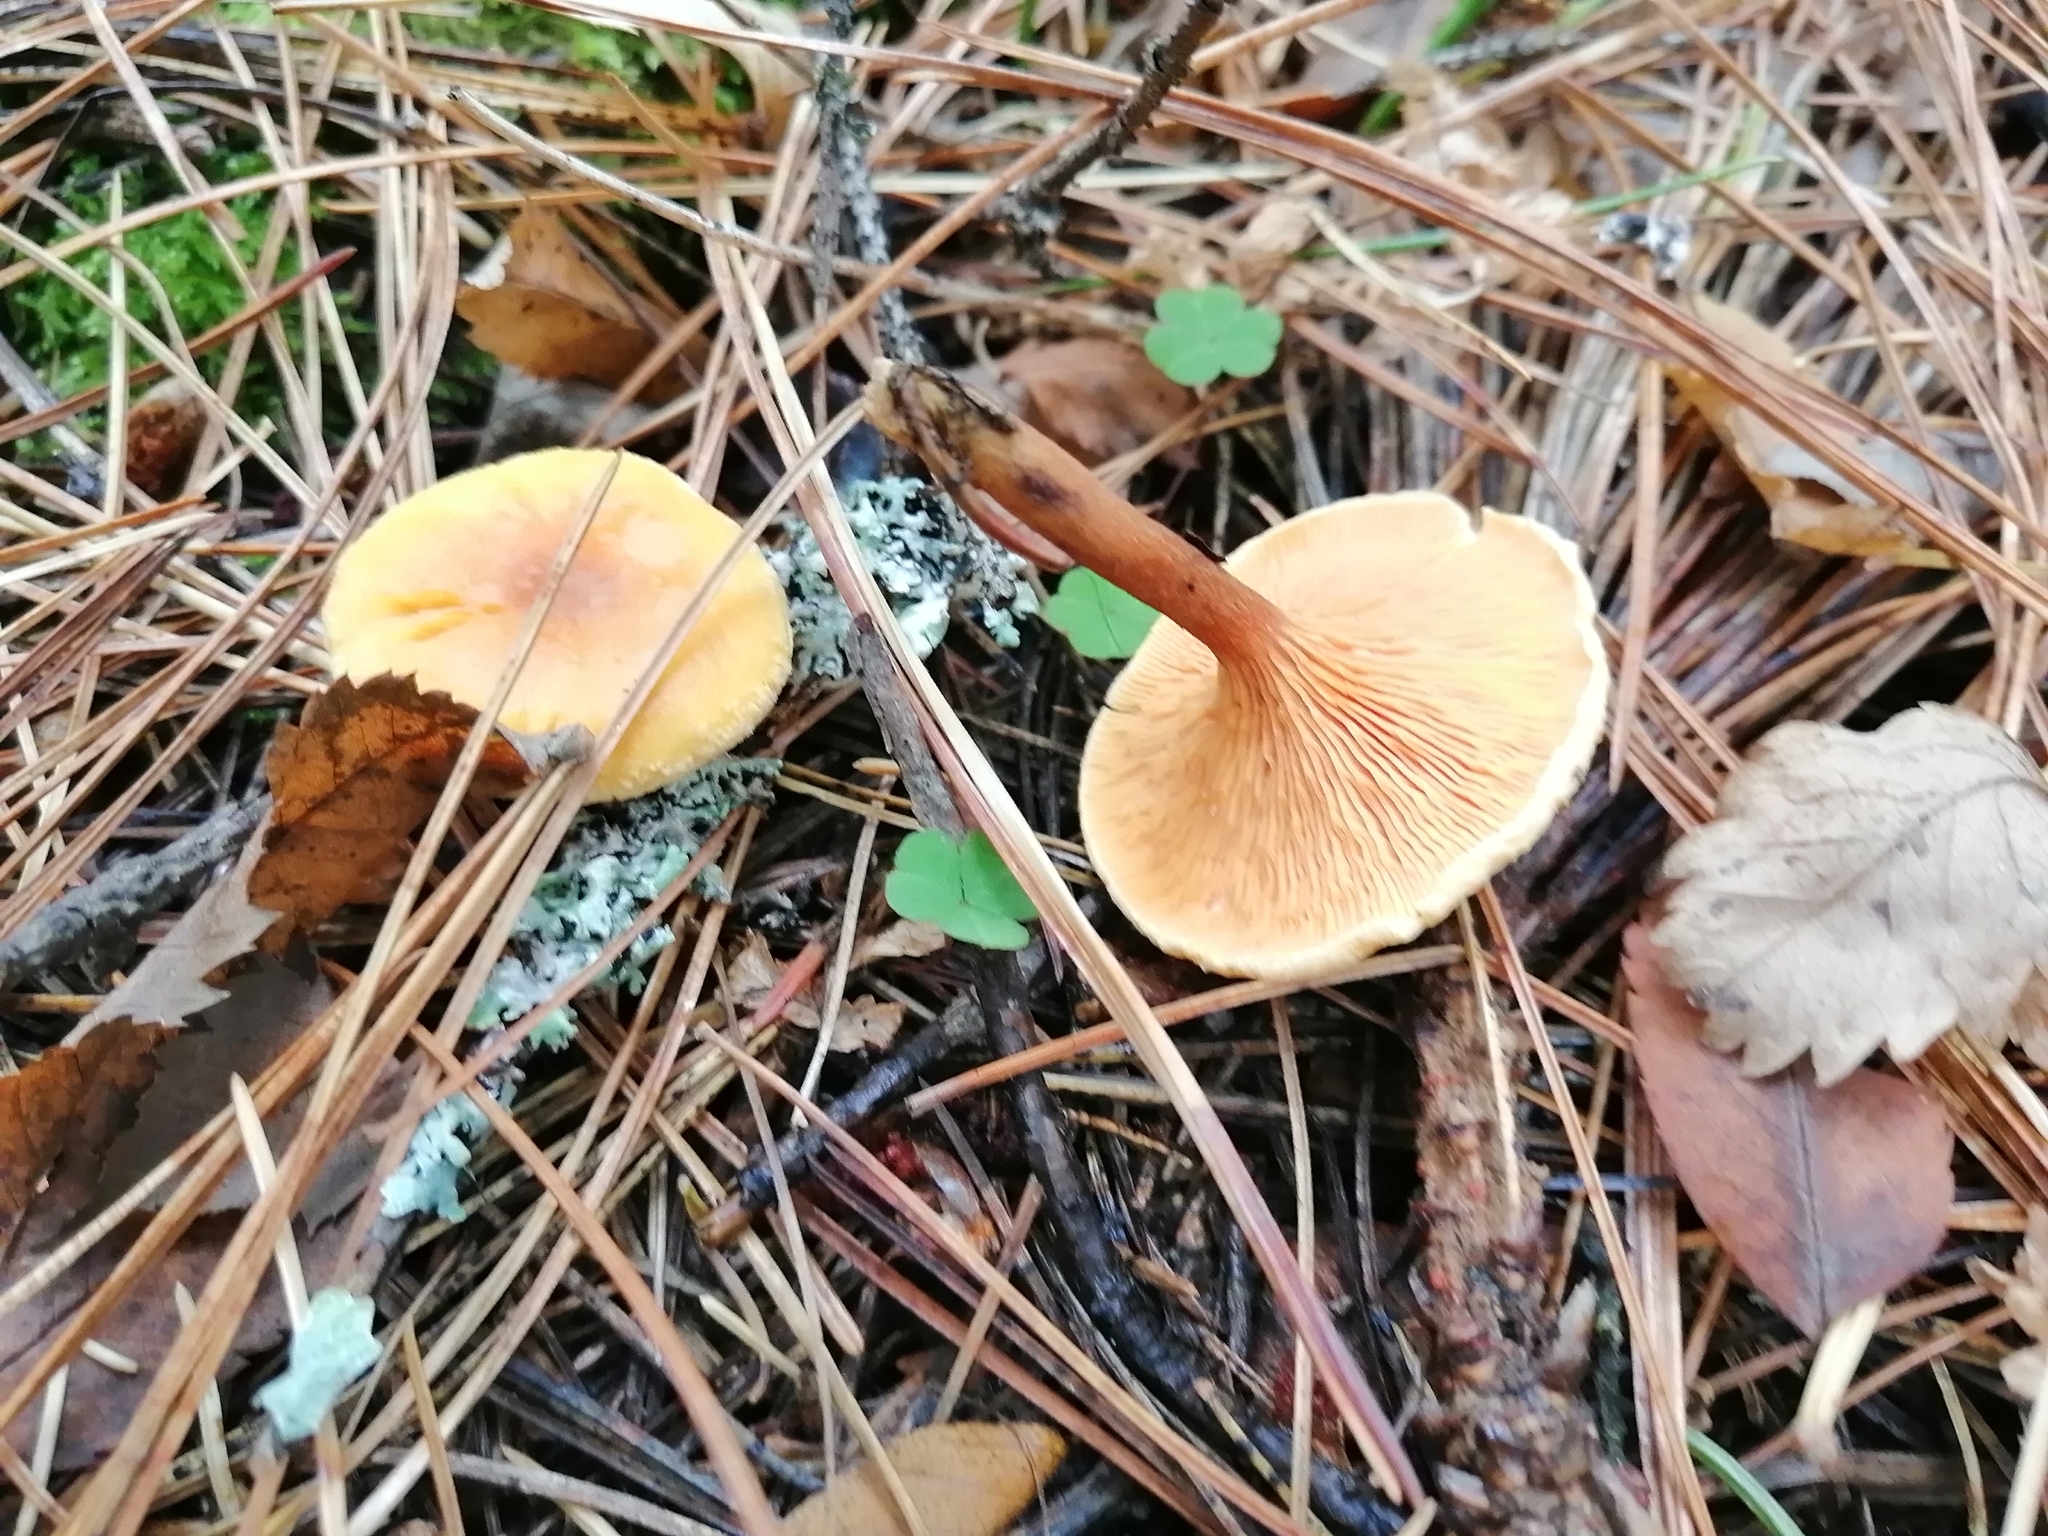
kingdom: Fungi
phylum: Basidiomycota
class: Agaricomycetes
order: Boletales
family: Hygrophoropsidaceae
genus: Hygrophoropsis
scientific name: Hygrophoropsis aurantiaca
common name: False chanterelle
